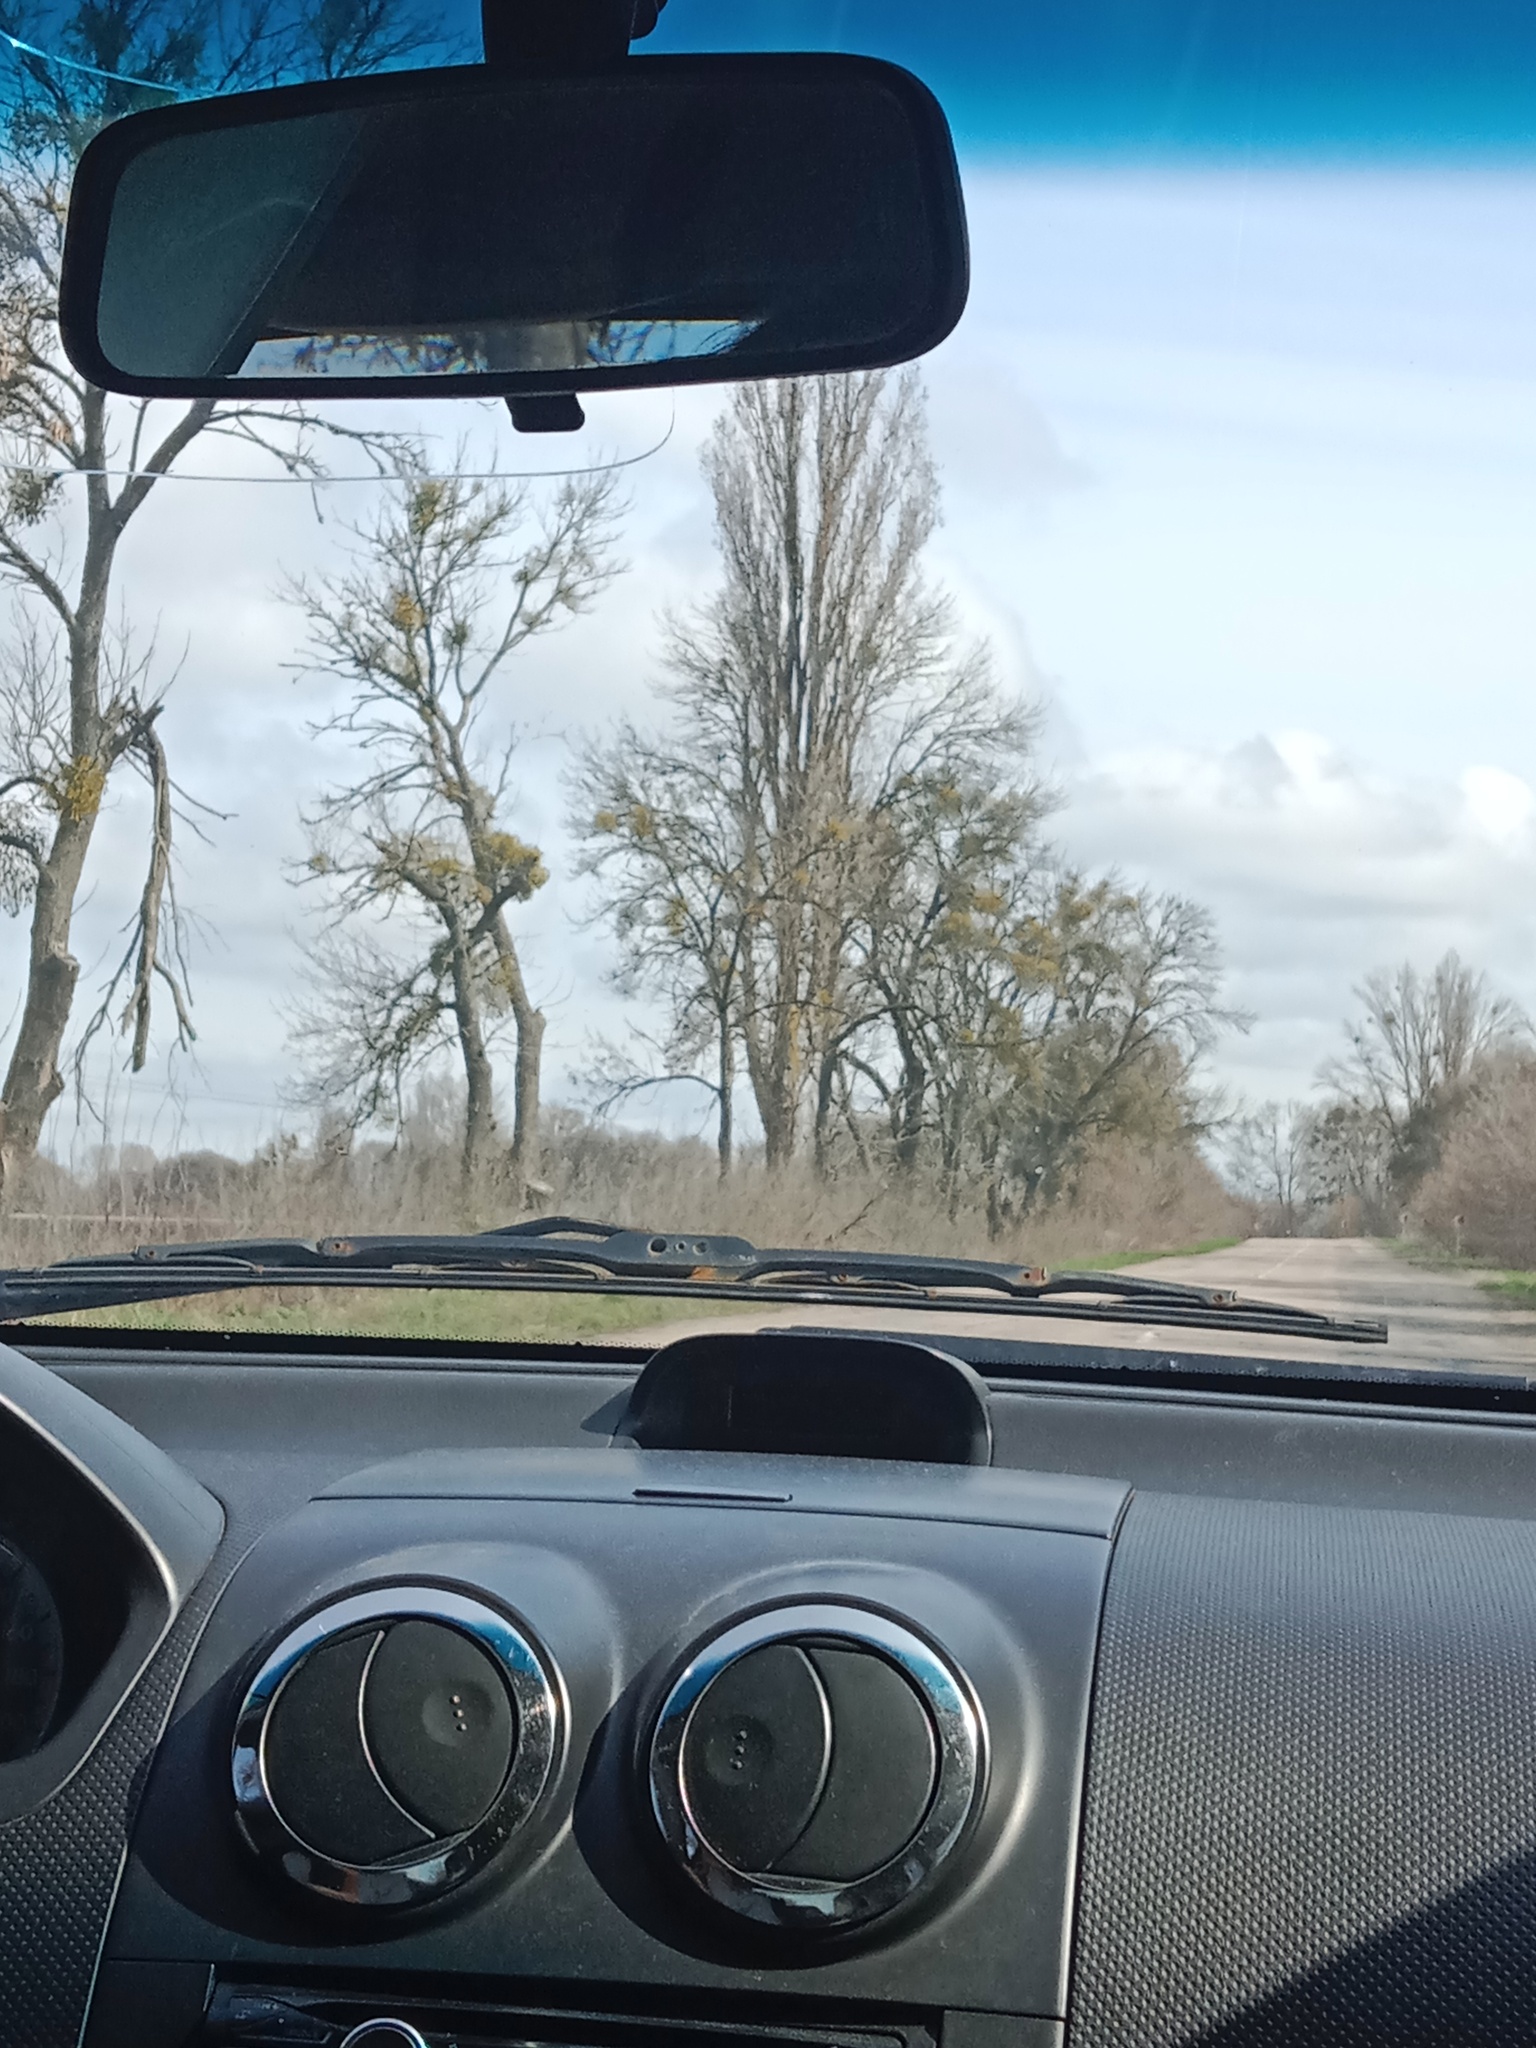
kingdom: Plantae
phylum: Tracheophyta
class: Magnoliopsida
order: Santalales
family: Viscaceae
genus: Viscum
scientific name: Viscum album
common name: Mistletoe
